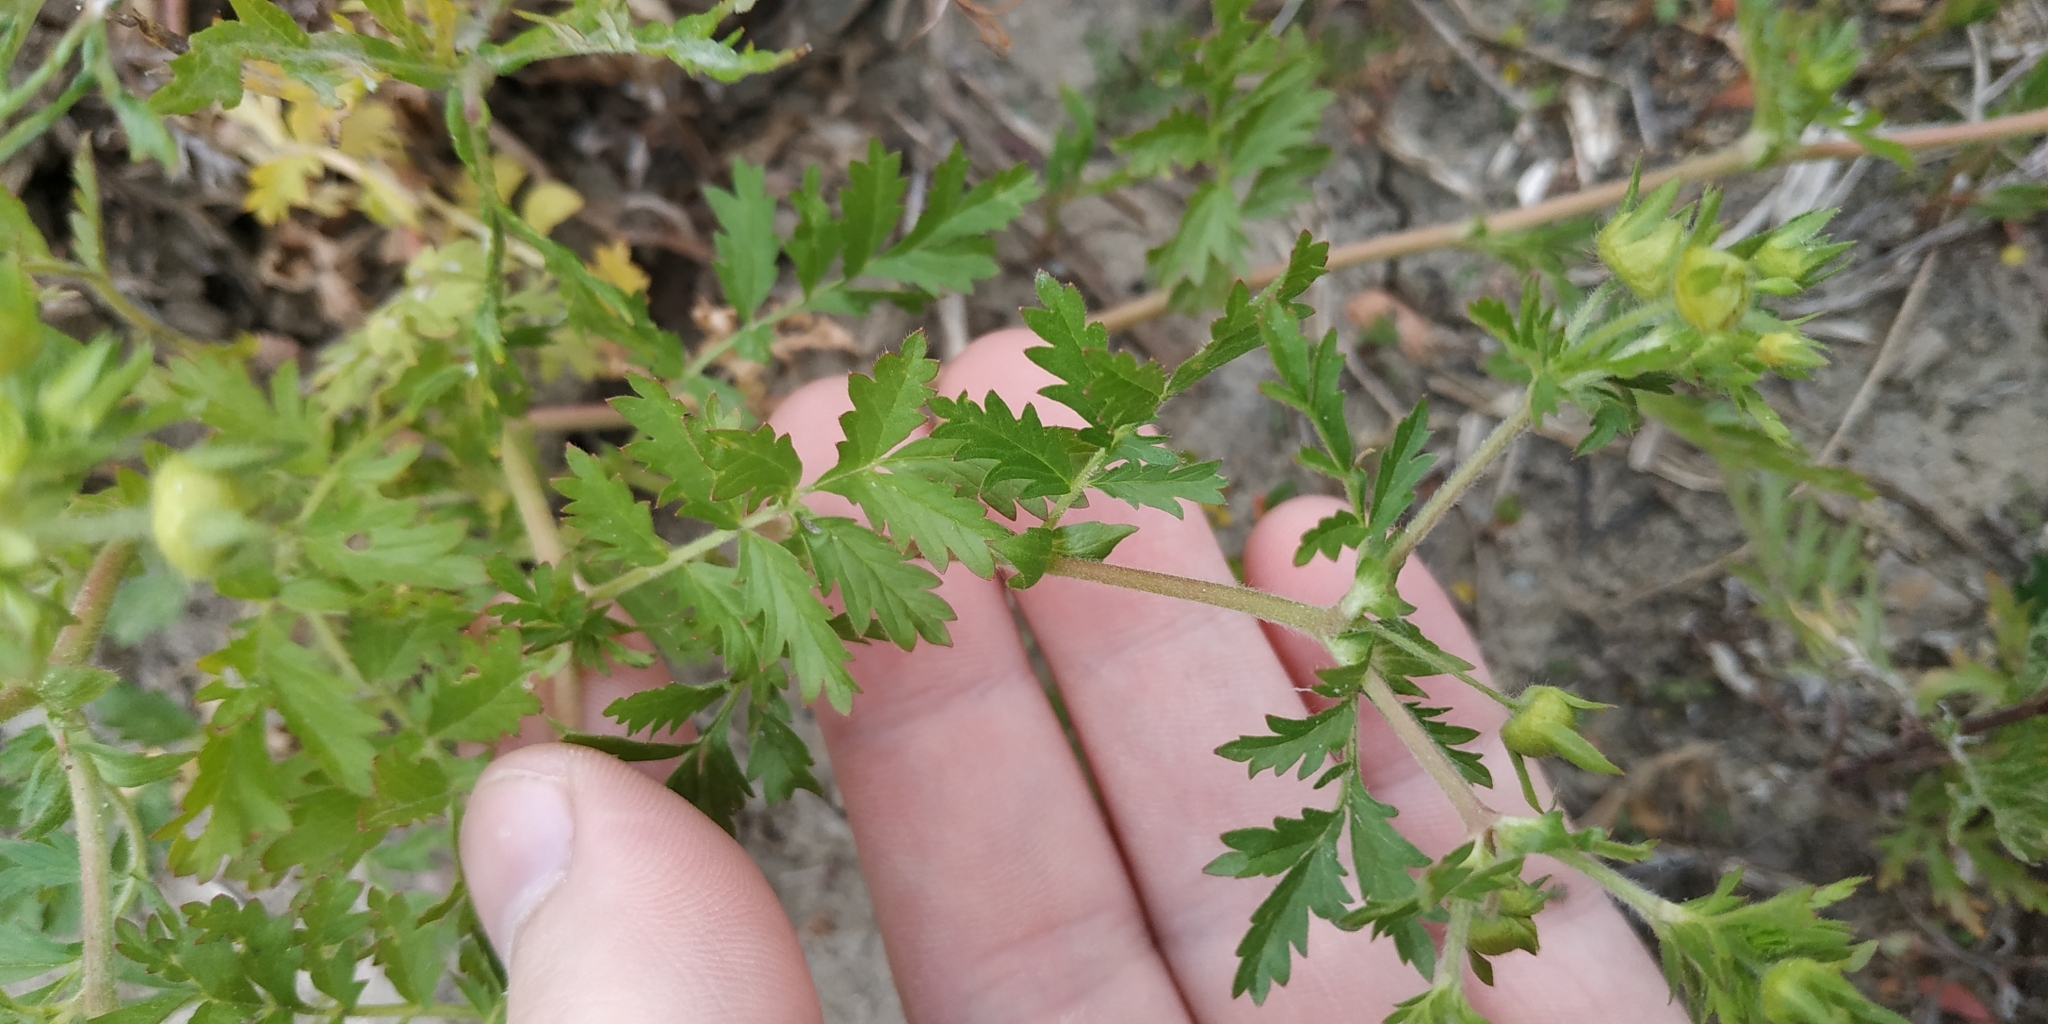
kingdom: Plantae
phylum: Tracheophyta
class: Magnoliopsida
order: Rosales
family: Rosaceae
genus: Potentilla
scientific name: Potentilla supina
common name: Prostrate cinquefoil
